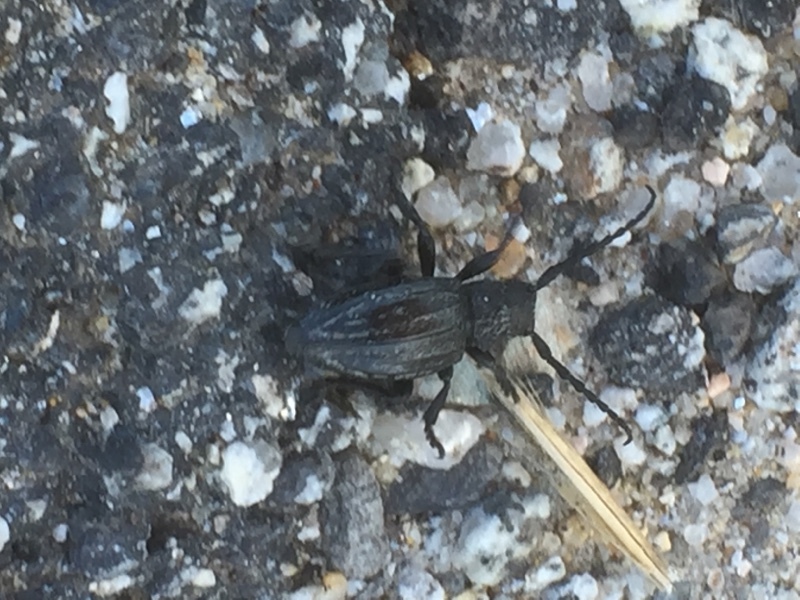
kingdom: Animalia
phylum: Arthropoda
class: Insecta
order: Coleoptera
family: Cerambycidae
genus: Iberodorcadion
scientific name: Iberodorcadion brannani
